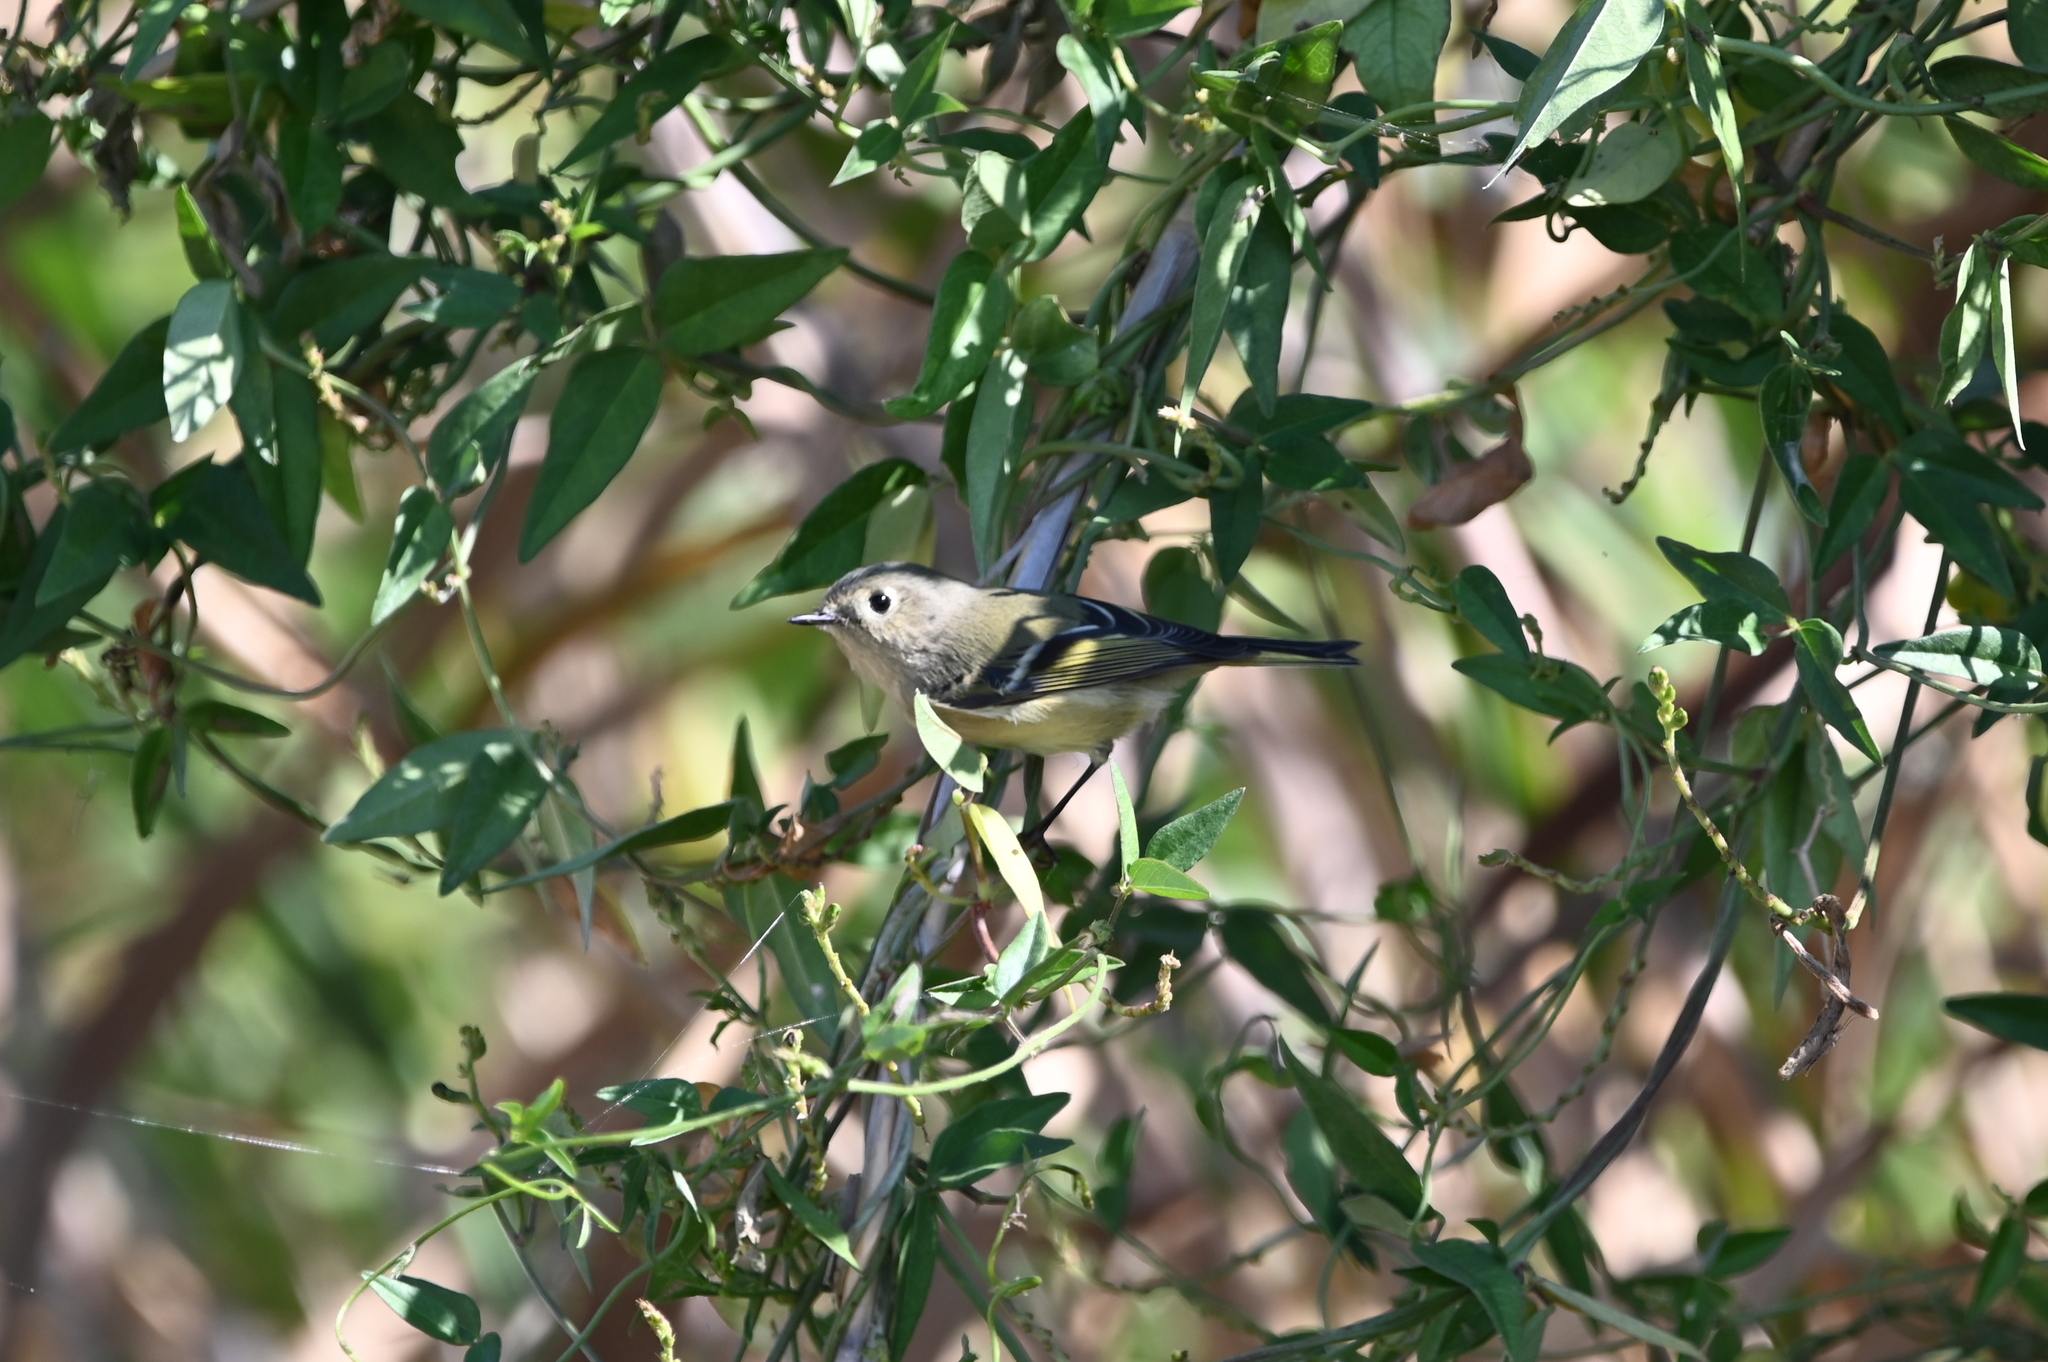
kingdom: Animalia
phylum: Chordata
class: Aves
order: Passeriformes
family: Regulidae
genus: Regulus
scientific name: Regulus calendula
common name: Ruby-crowned kinglet
